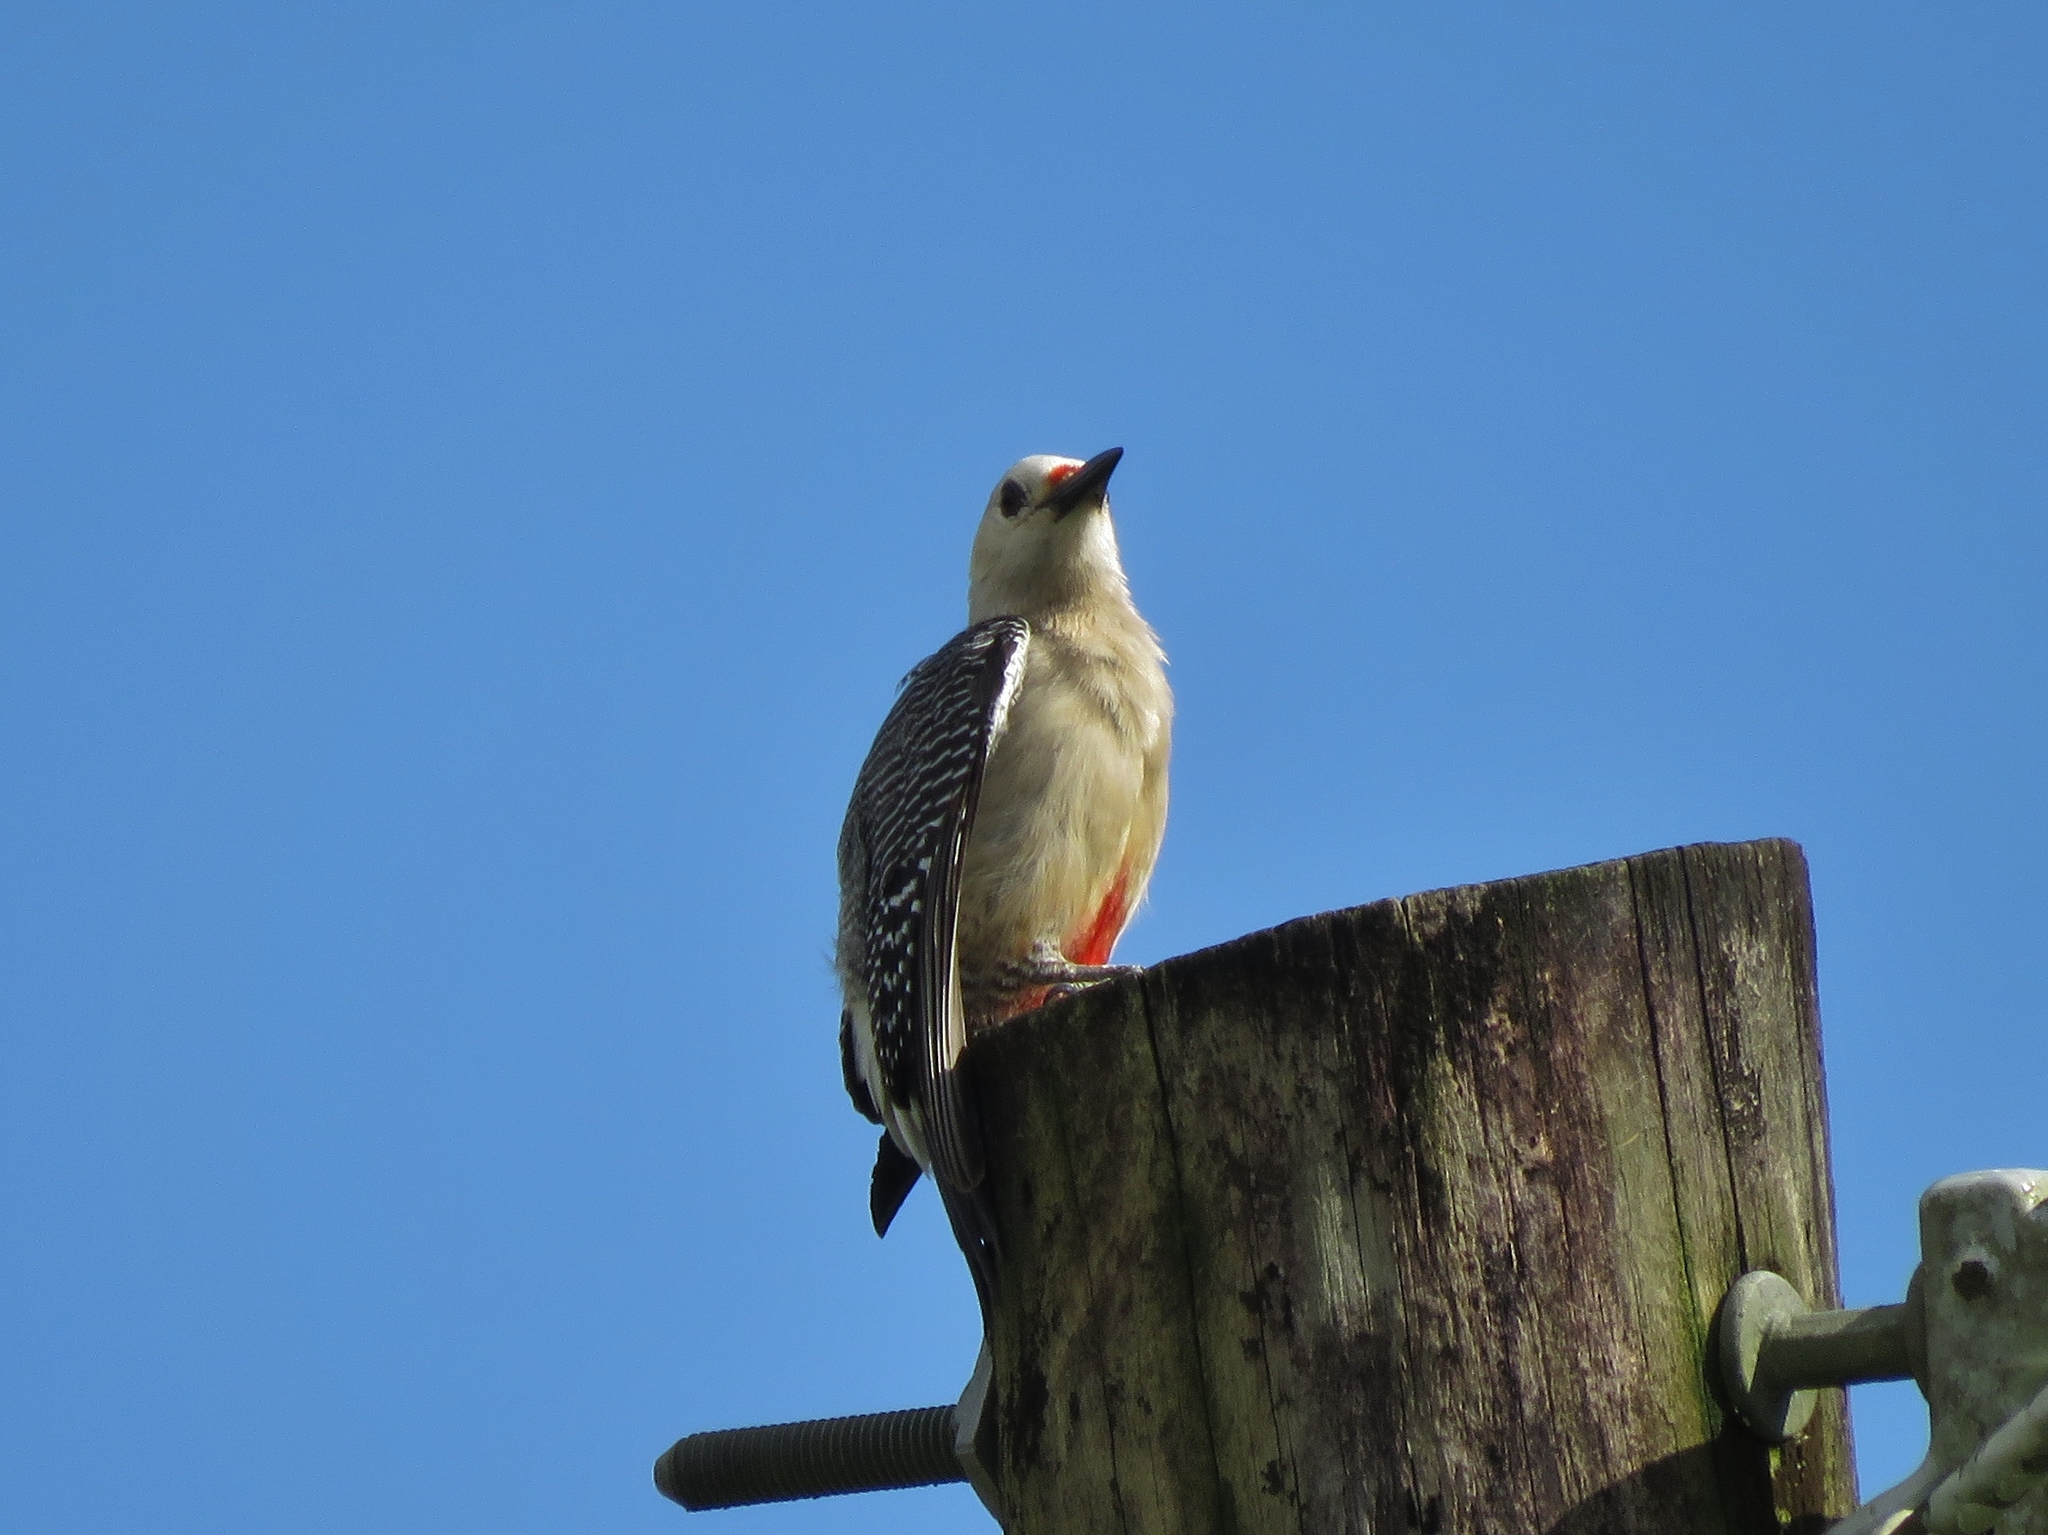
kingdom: Animalia
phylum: Chordata
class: Aves
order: Piciformes
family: Picidae
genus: Melanerpes
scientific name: Melanerpes aurifrons
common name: Golden-fronted woodpecker
